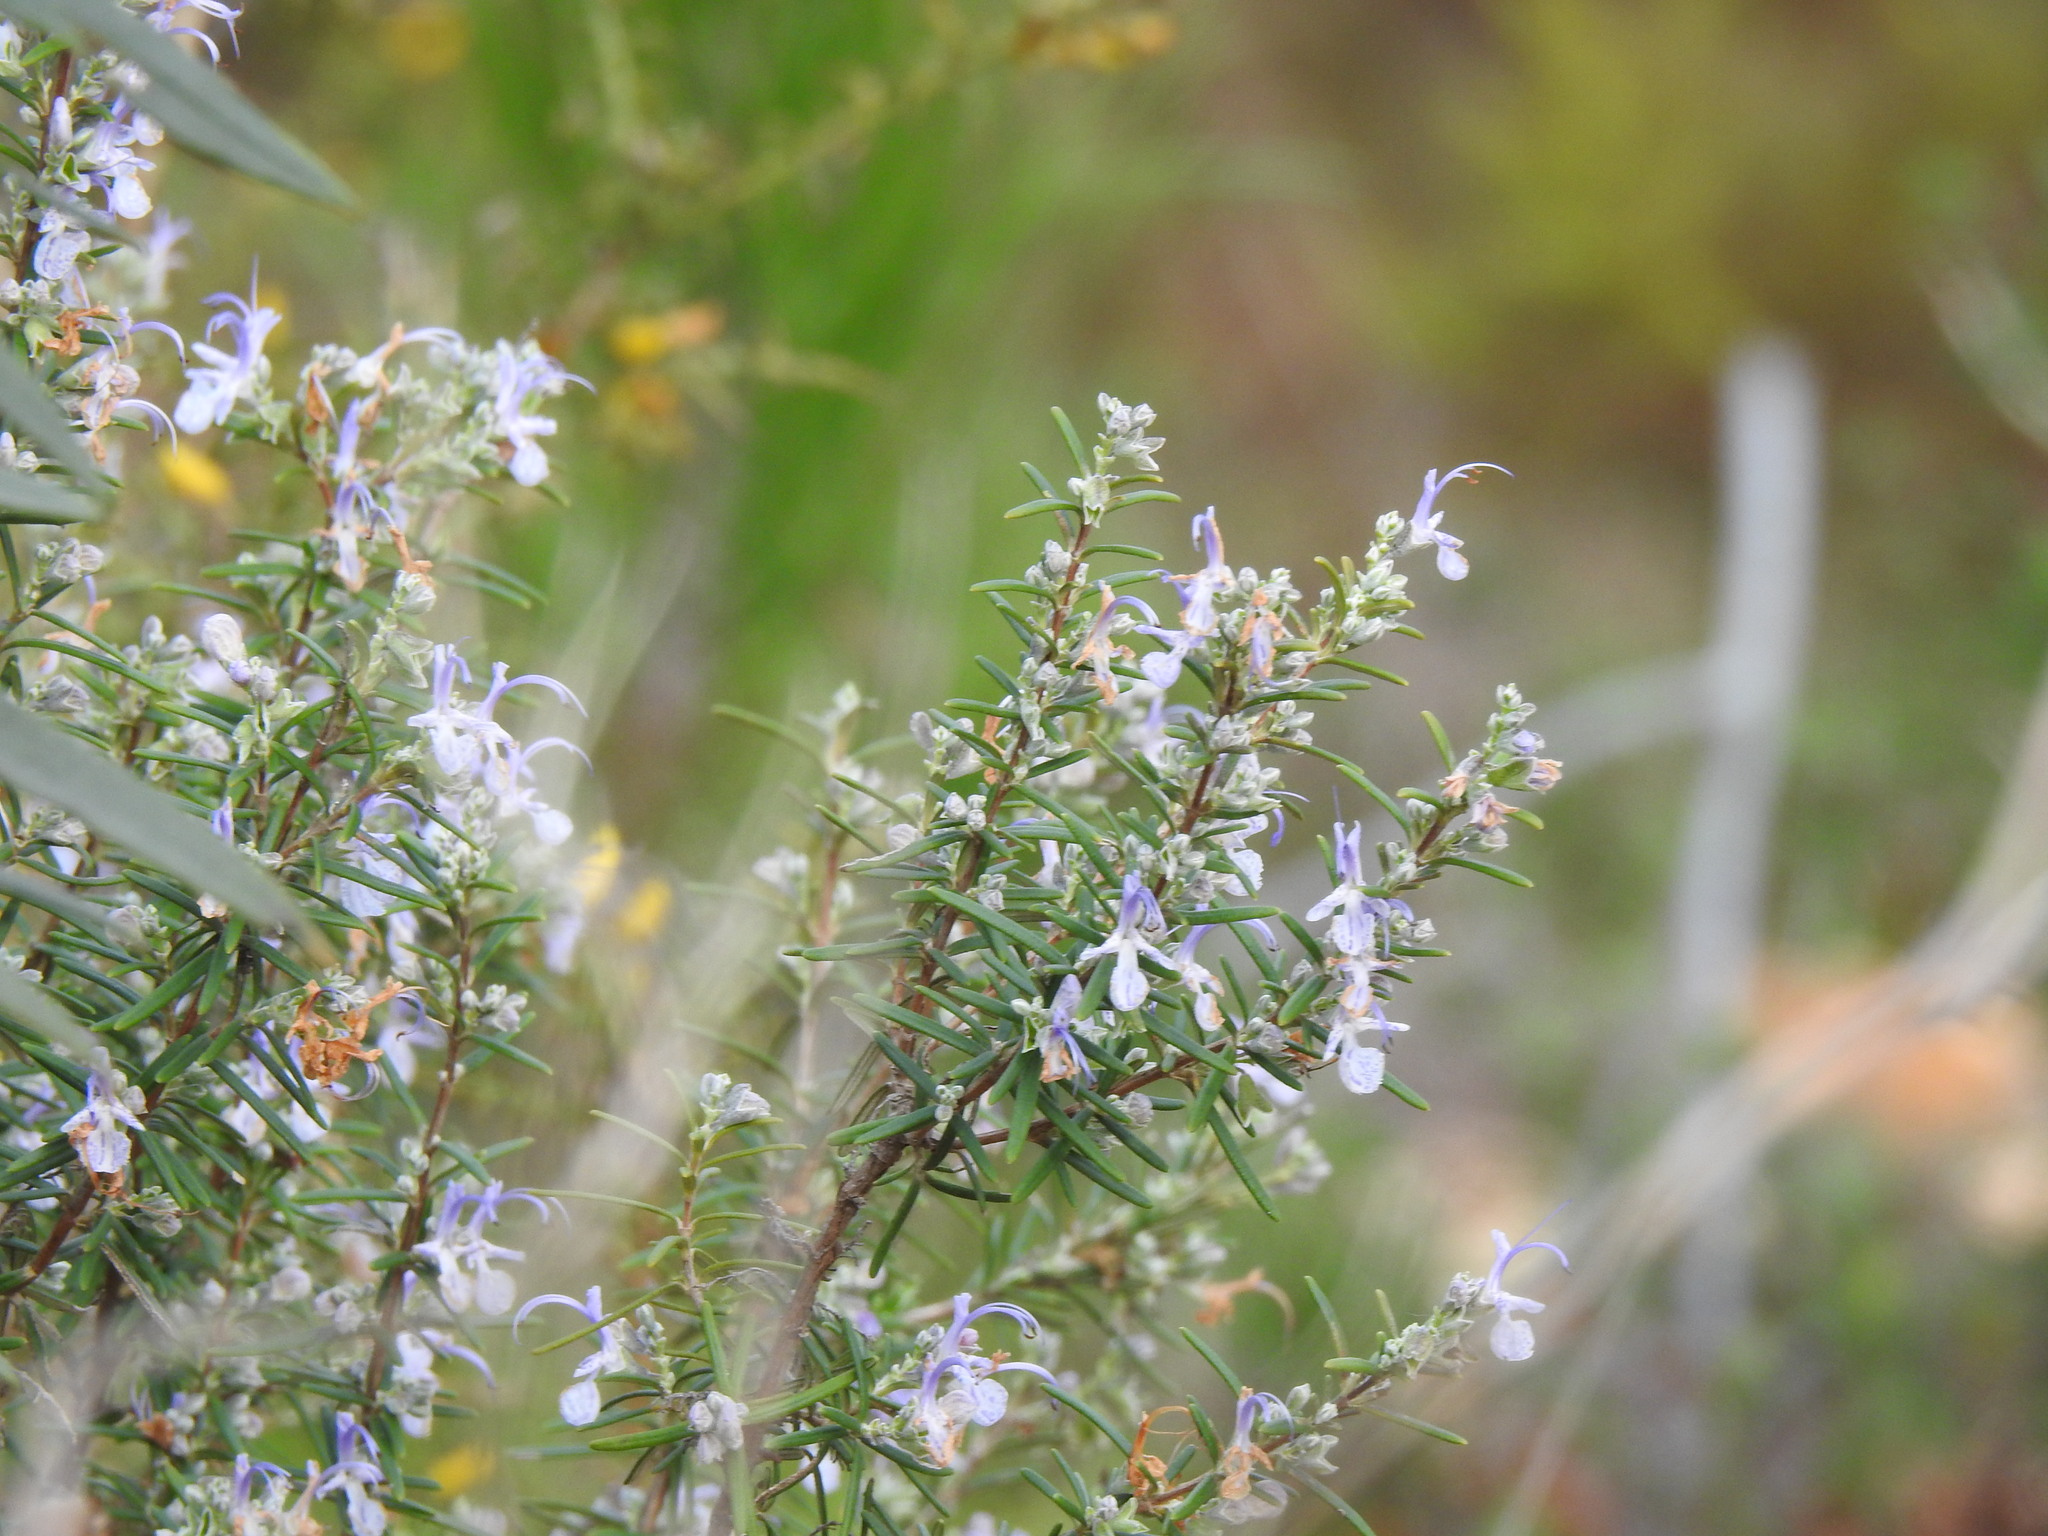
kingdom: Plantae
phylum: Tracheophyta
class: Magnoliopsida
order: Lamiales
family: Lamiaceae
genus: Salvia
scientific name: Salvia rosmarinus
